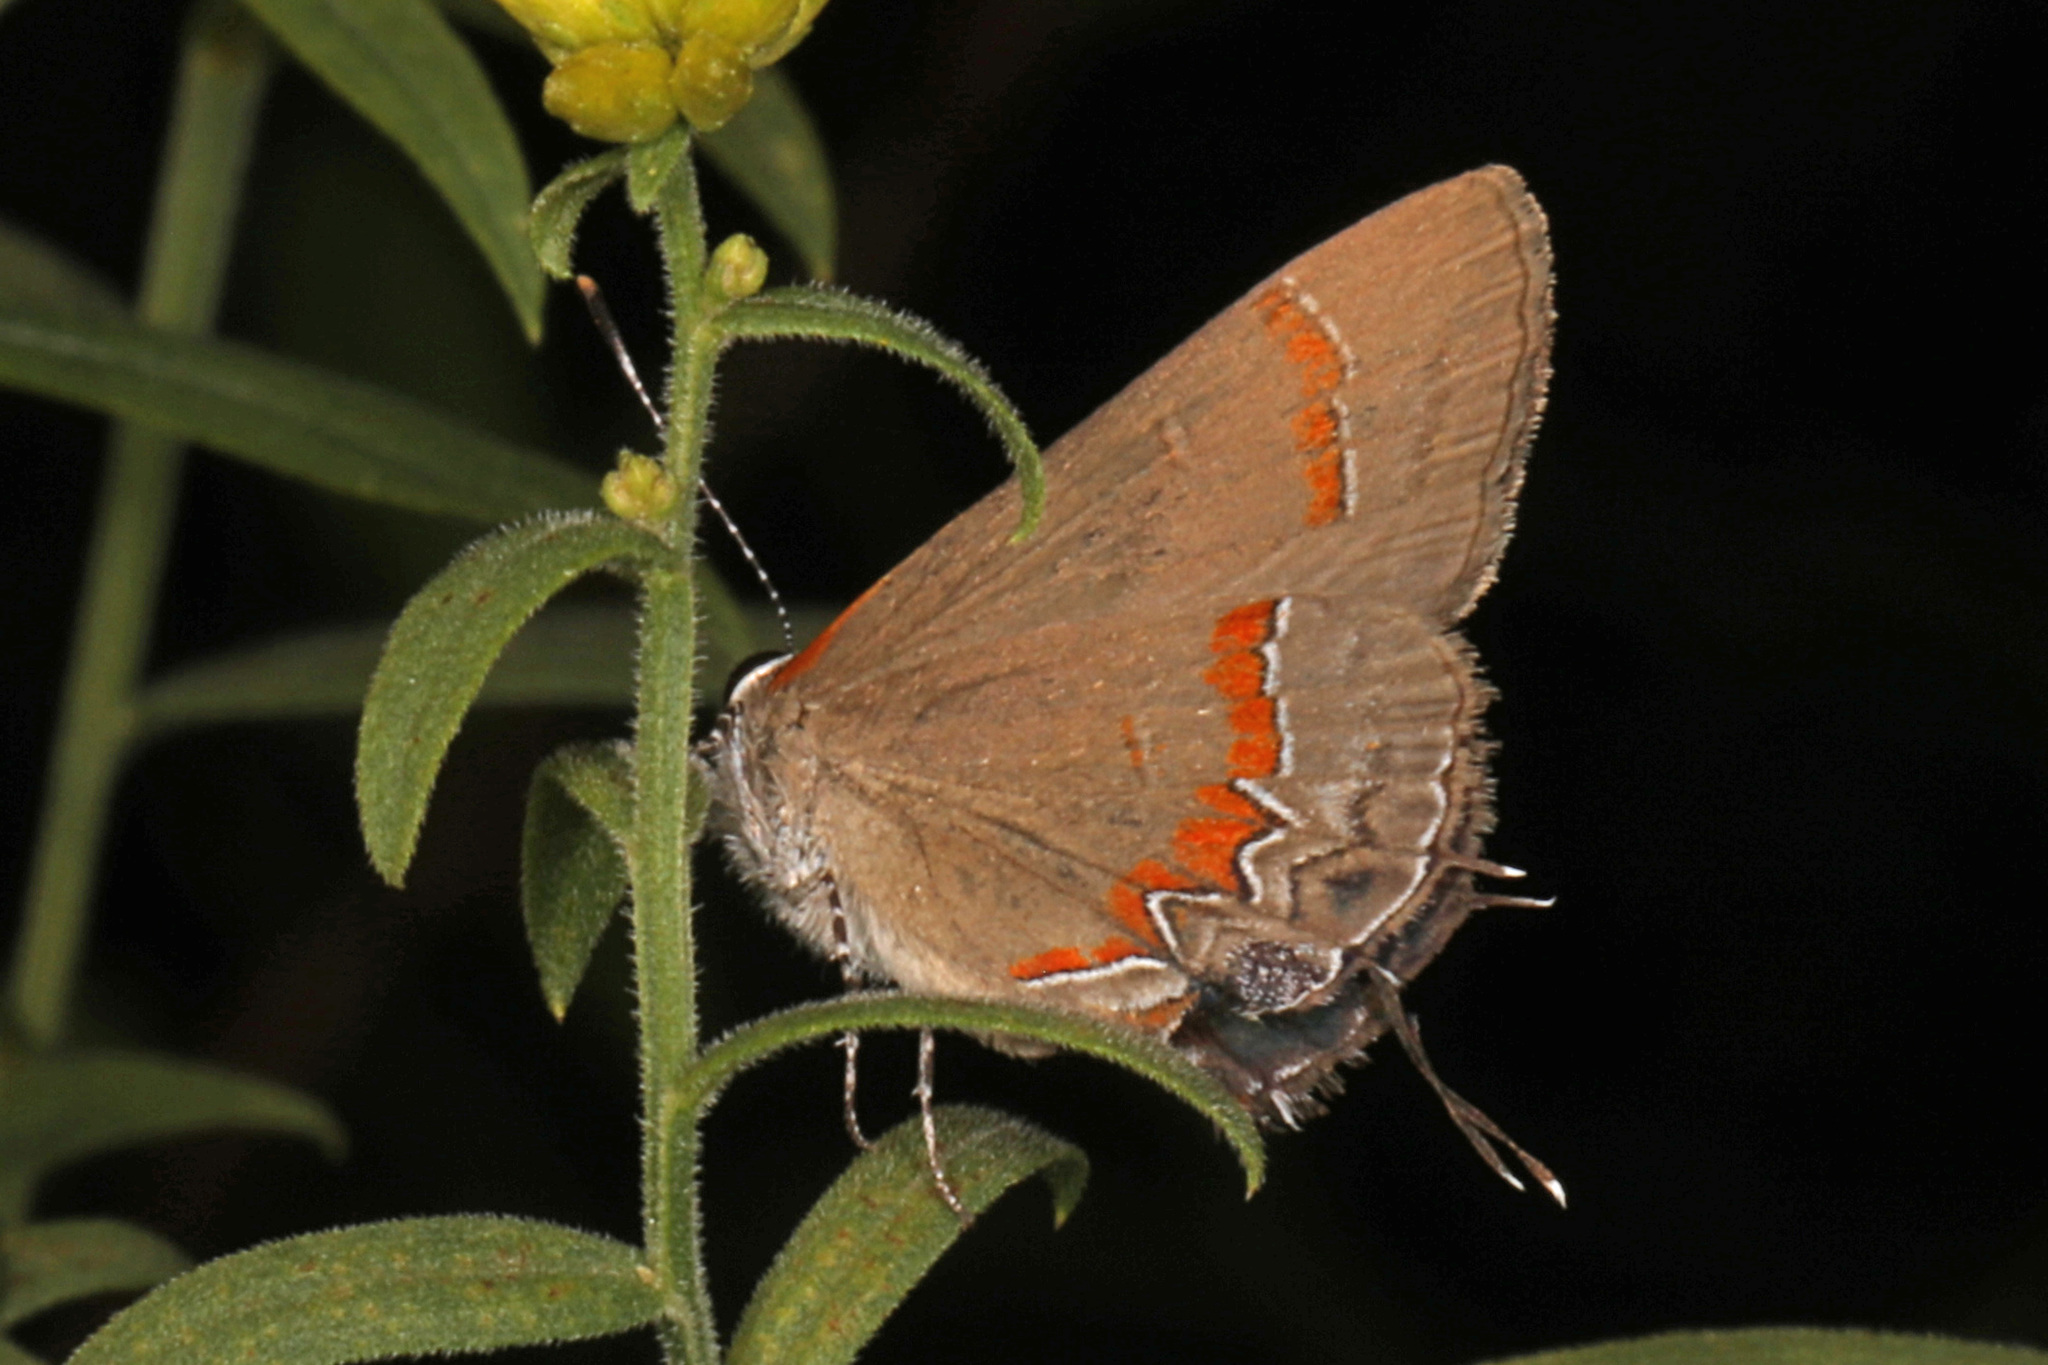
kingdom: Animalia
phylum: Arthropoda
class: Insecta
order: Lepidoptera
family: Lycaenidae
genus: Calycopis
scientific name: Calycopis cecrops
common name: Red-banded hairstreak
